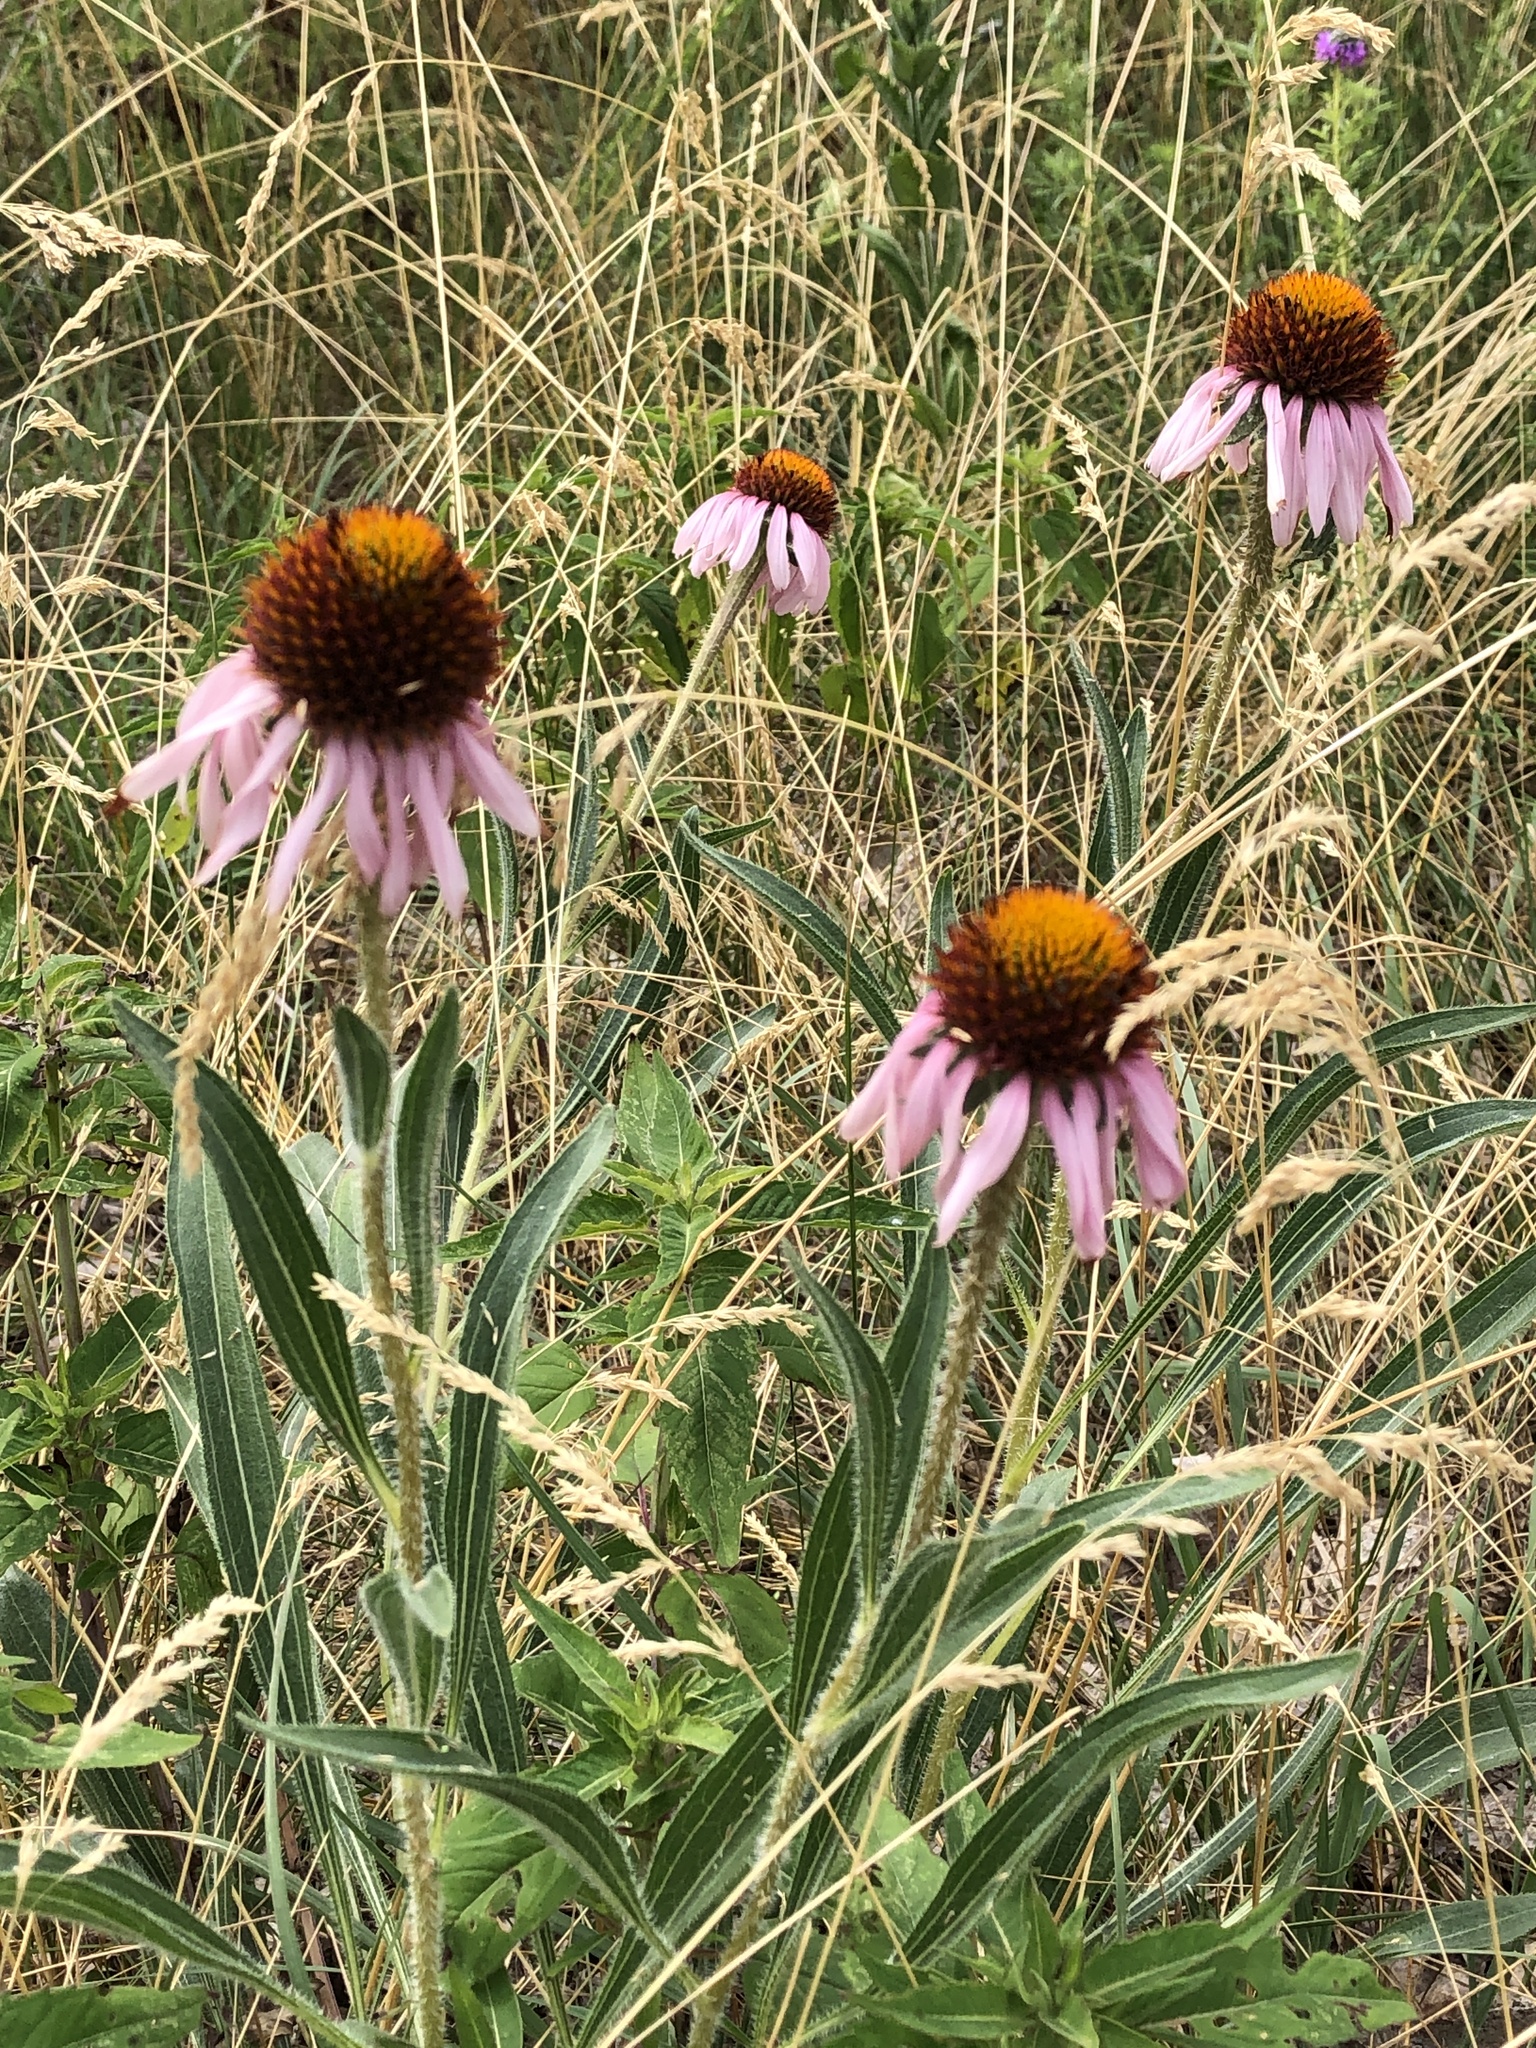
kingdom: Plantae
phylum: Tracheophyta
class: Magnoliopsida
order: Asterales
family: Asteraceae
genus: Echinacea
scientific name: Echinacea angustifolia
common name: Black-sampson echinacea
